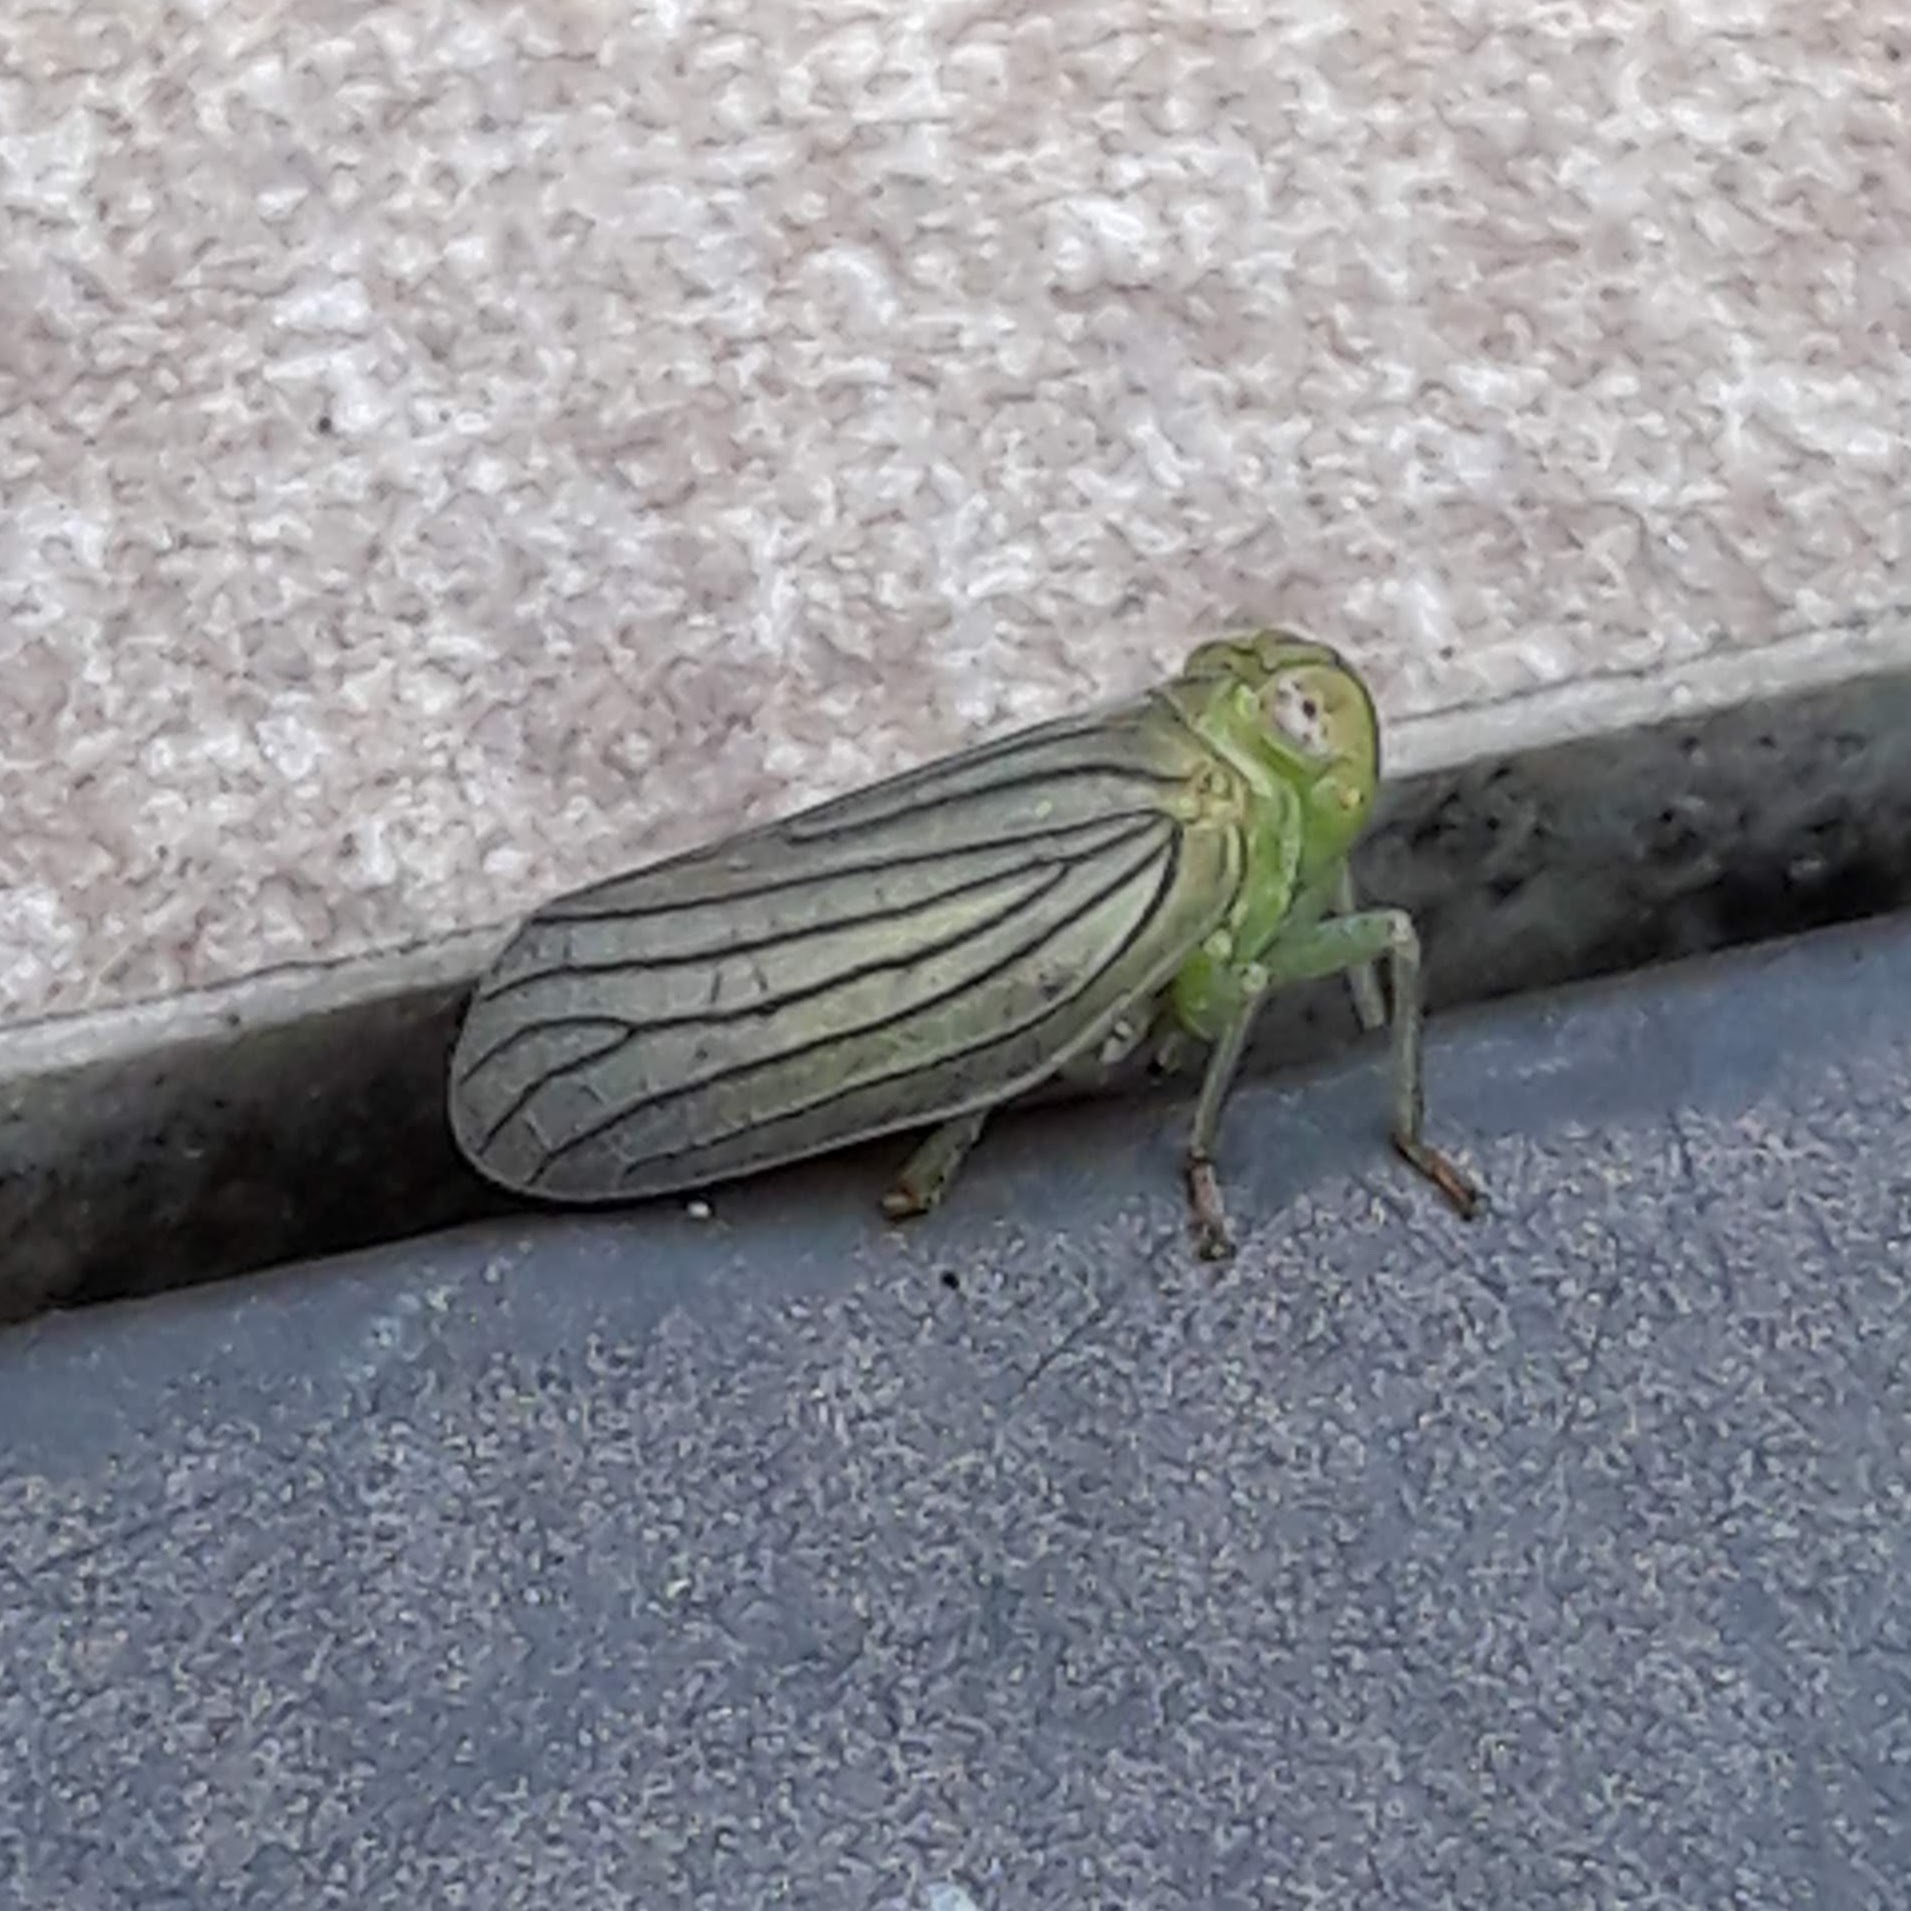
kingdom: Animalia
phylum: Arthropoda
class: Insecta
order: Hemiptera
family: Issidae
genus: Aplos
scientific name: Aplos simplex
